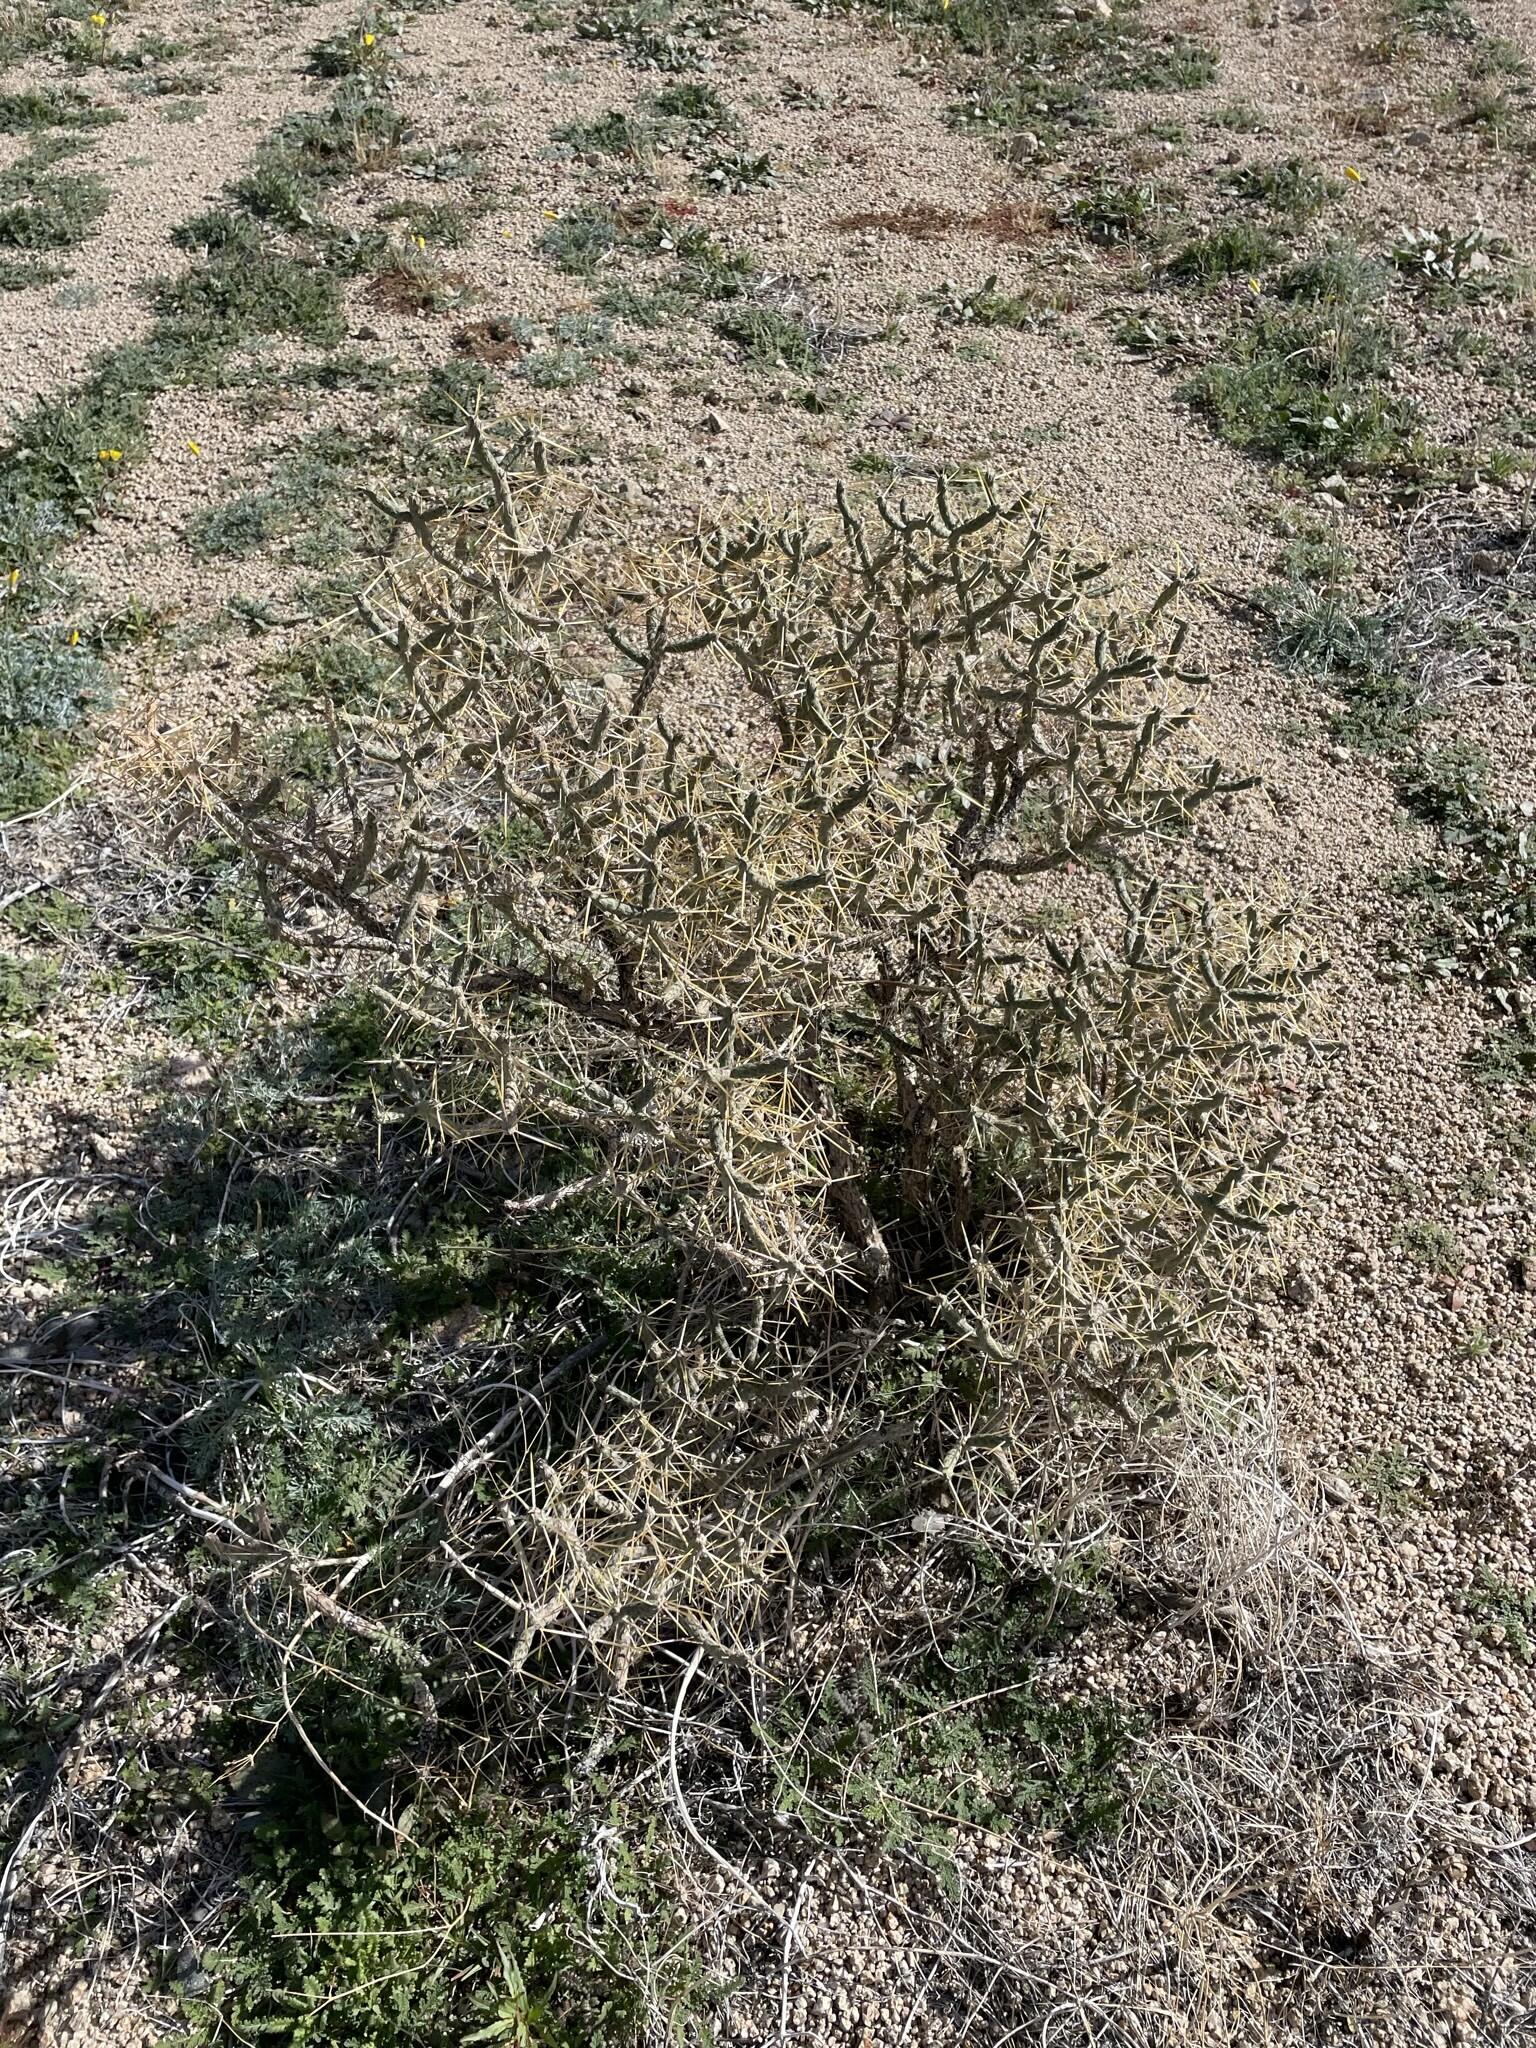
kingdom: Plantae
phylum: Tracheophyta
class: Magnoliopsida
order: Caryophyllales
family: Cactaceae
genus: Cylindropuntia
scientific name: Cylindropuntia ramosissima
